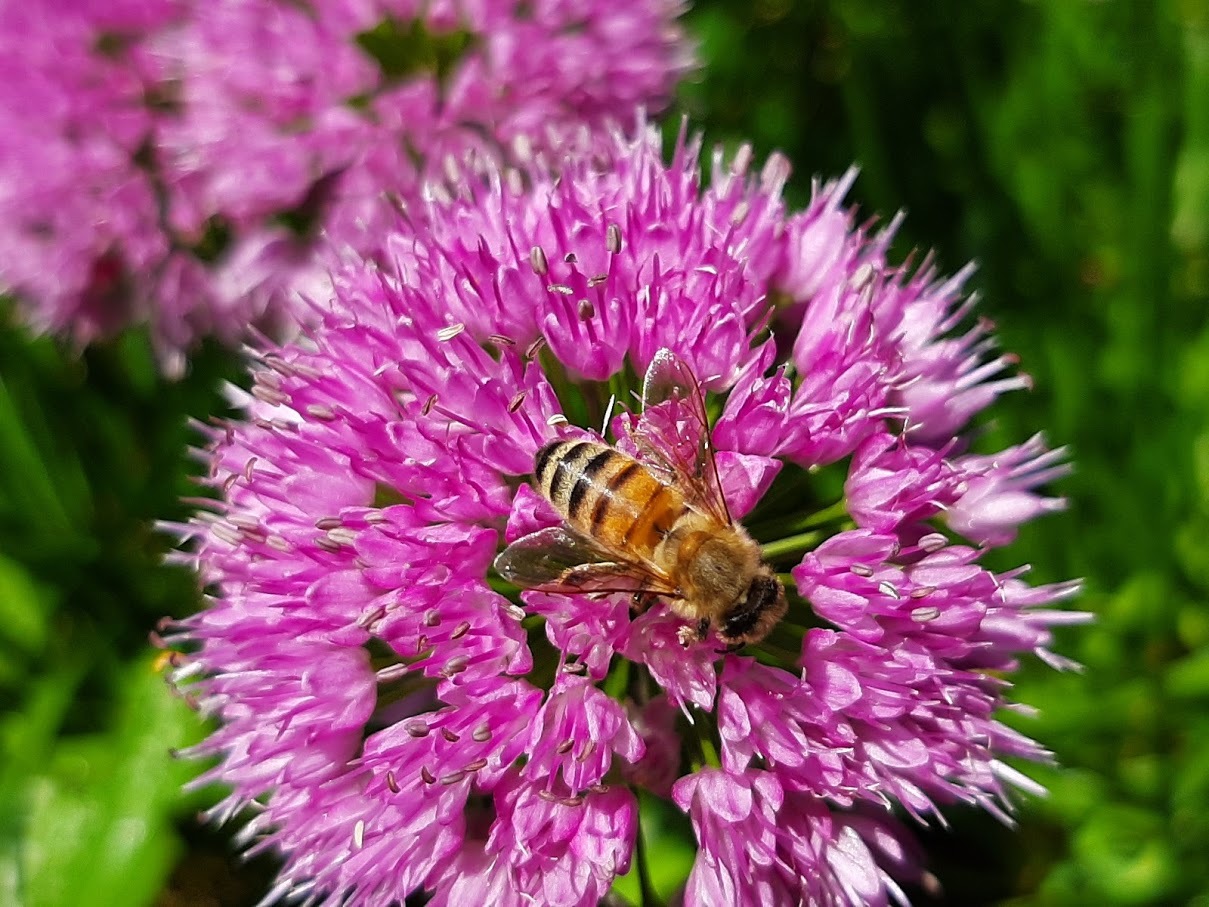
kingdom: Animalia
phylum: Arthropoda
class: Insecta
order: Hymenoptera
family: Apidae
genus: Apis
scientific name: Apis mellifera
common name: Honey bee
